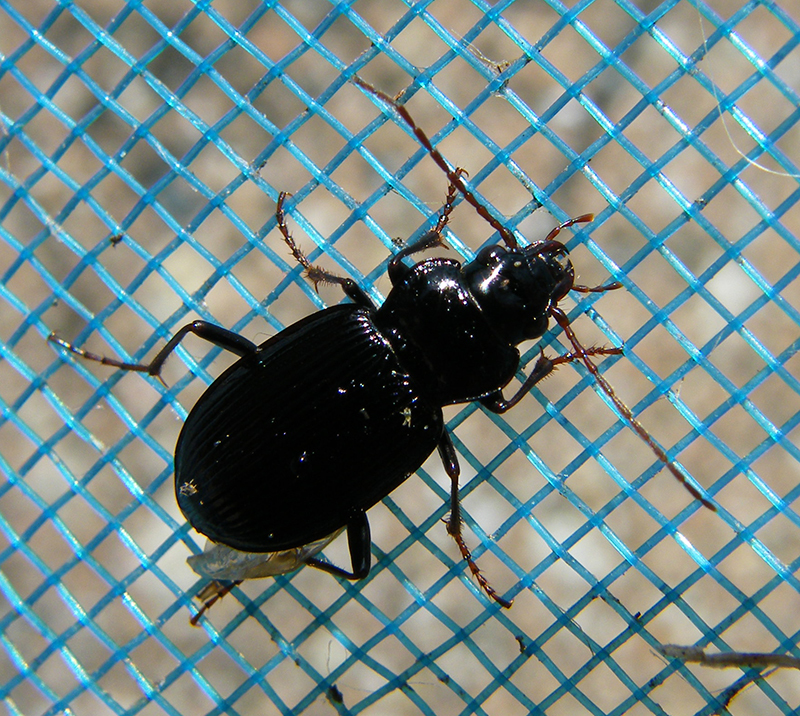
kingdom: Animalia
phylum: Arthropoda
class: Insecta
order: Coleoptera
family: Carabidae
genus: Nebria
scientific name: Nebria brevicollis
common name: Short-necked gazelle beetle
